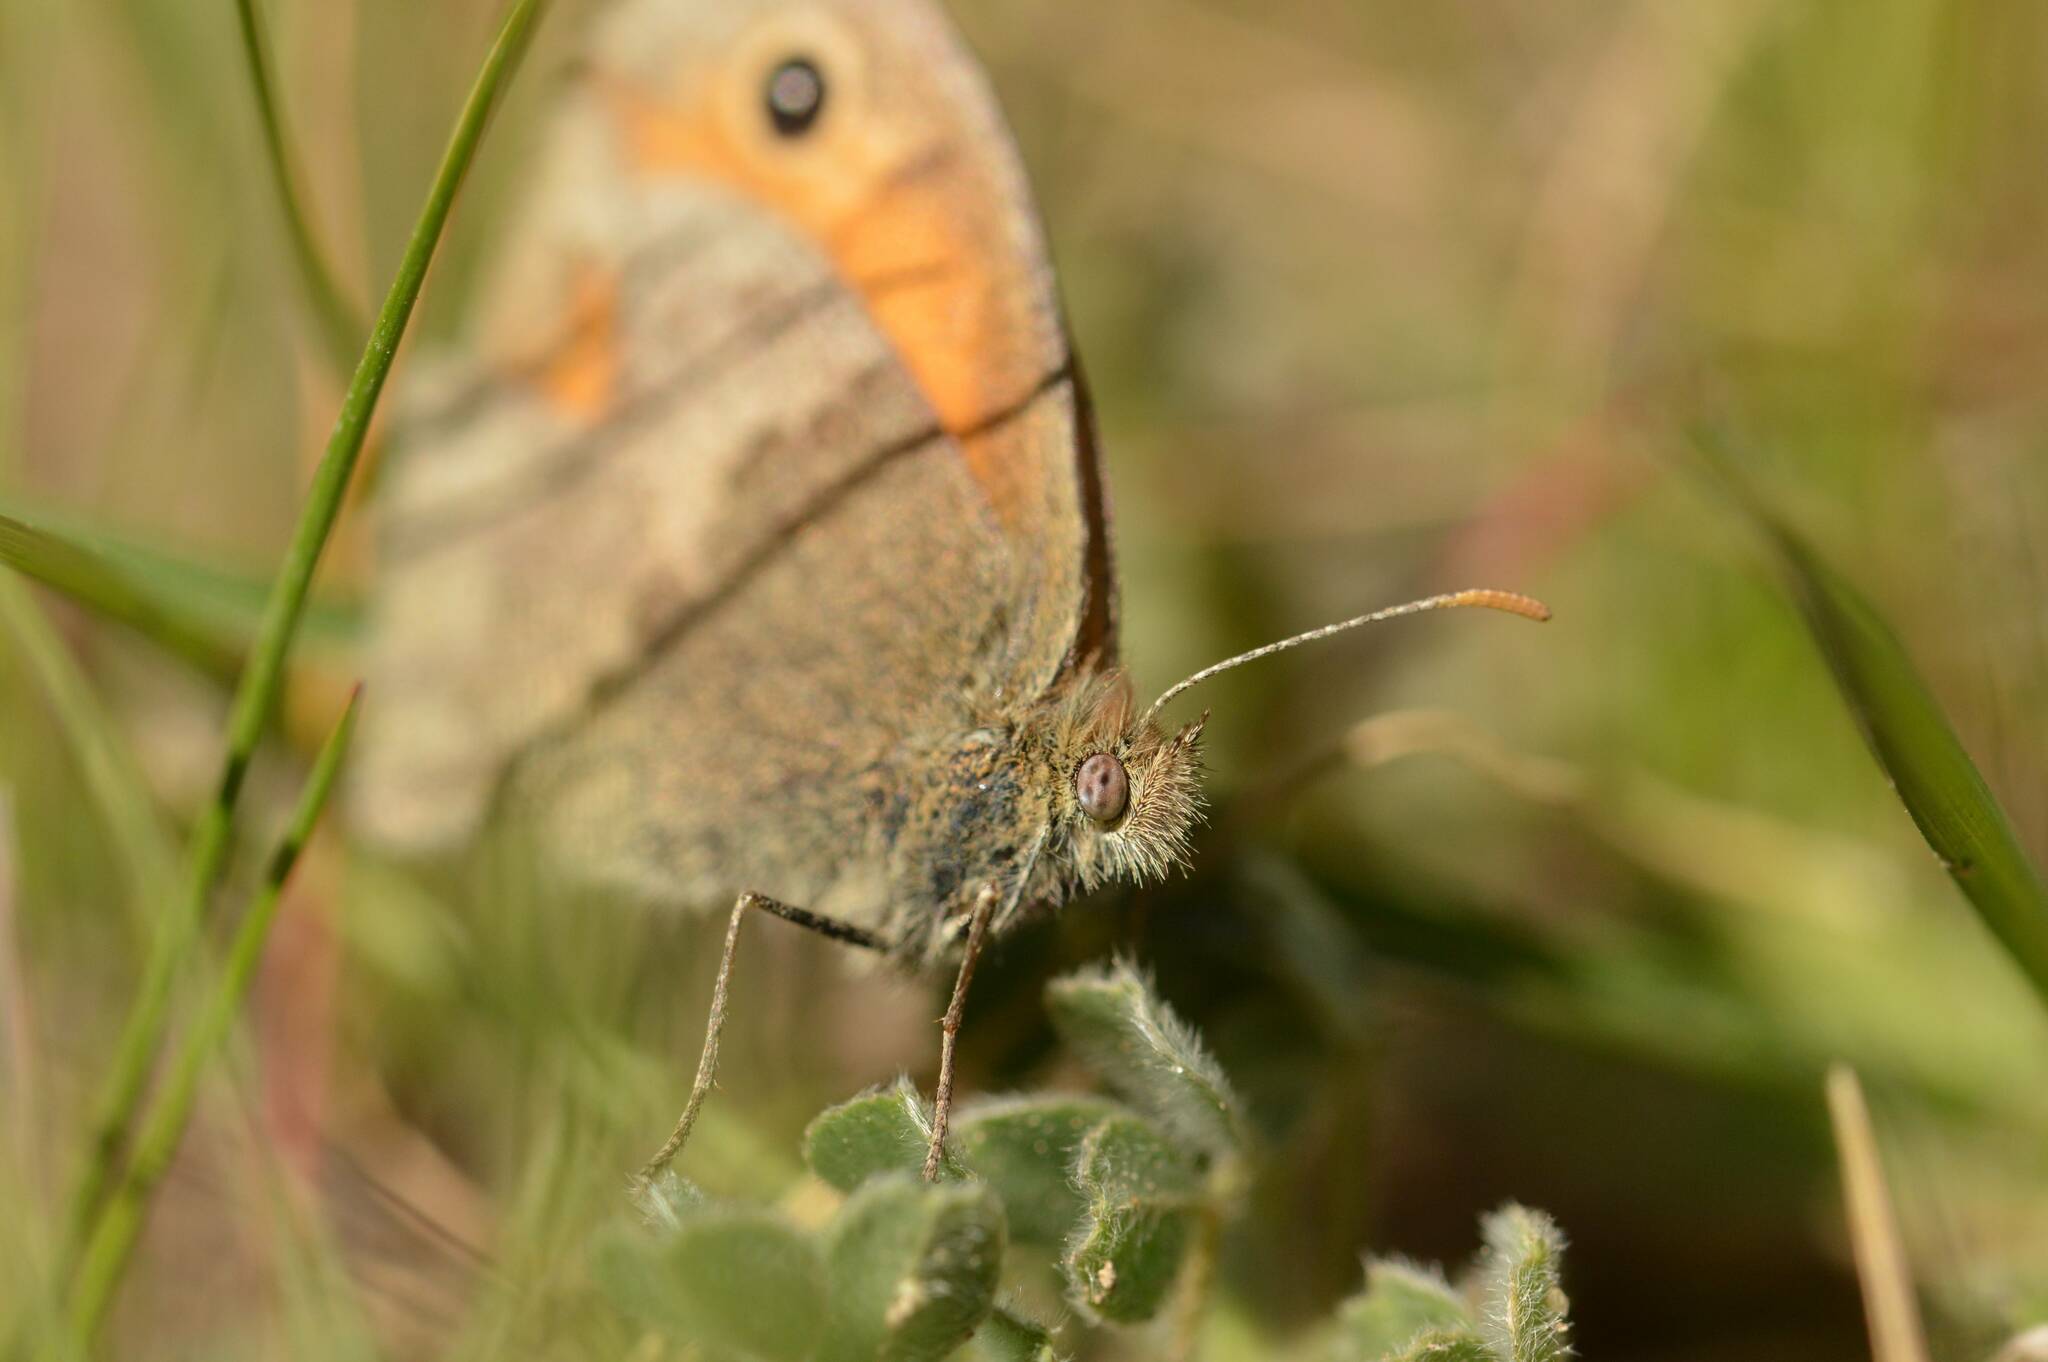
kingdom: Animalia
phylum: Arthropoda
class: Insecta
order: Lepidoptera
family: Nymphalidae
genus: Coenonympha
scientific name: Coenonympha pamphilus
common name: Small heath
